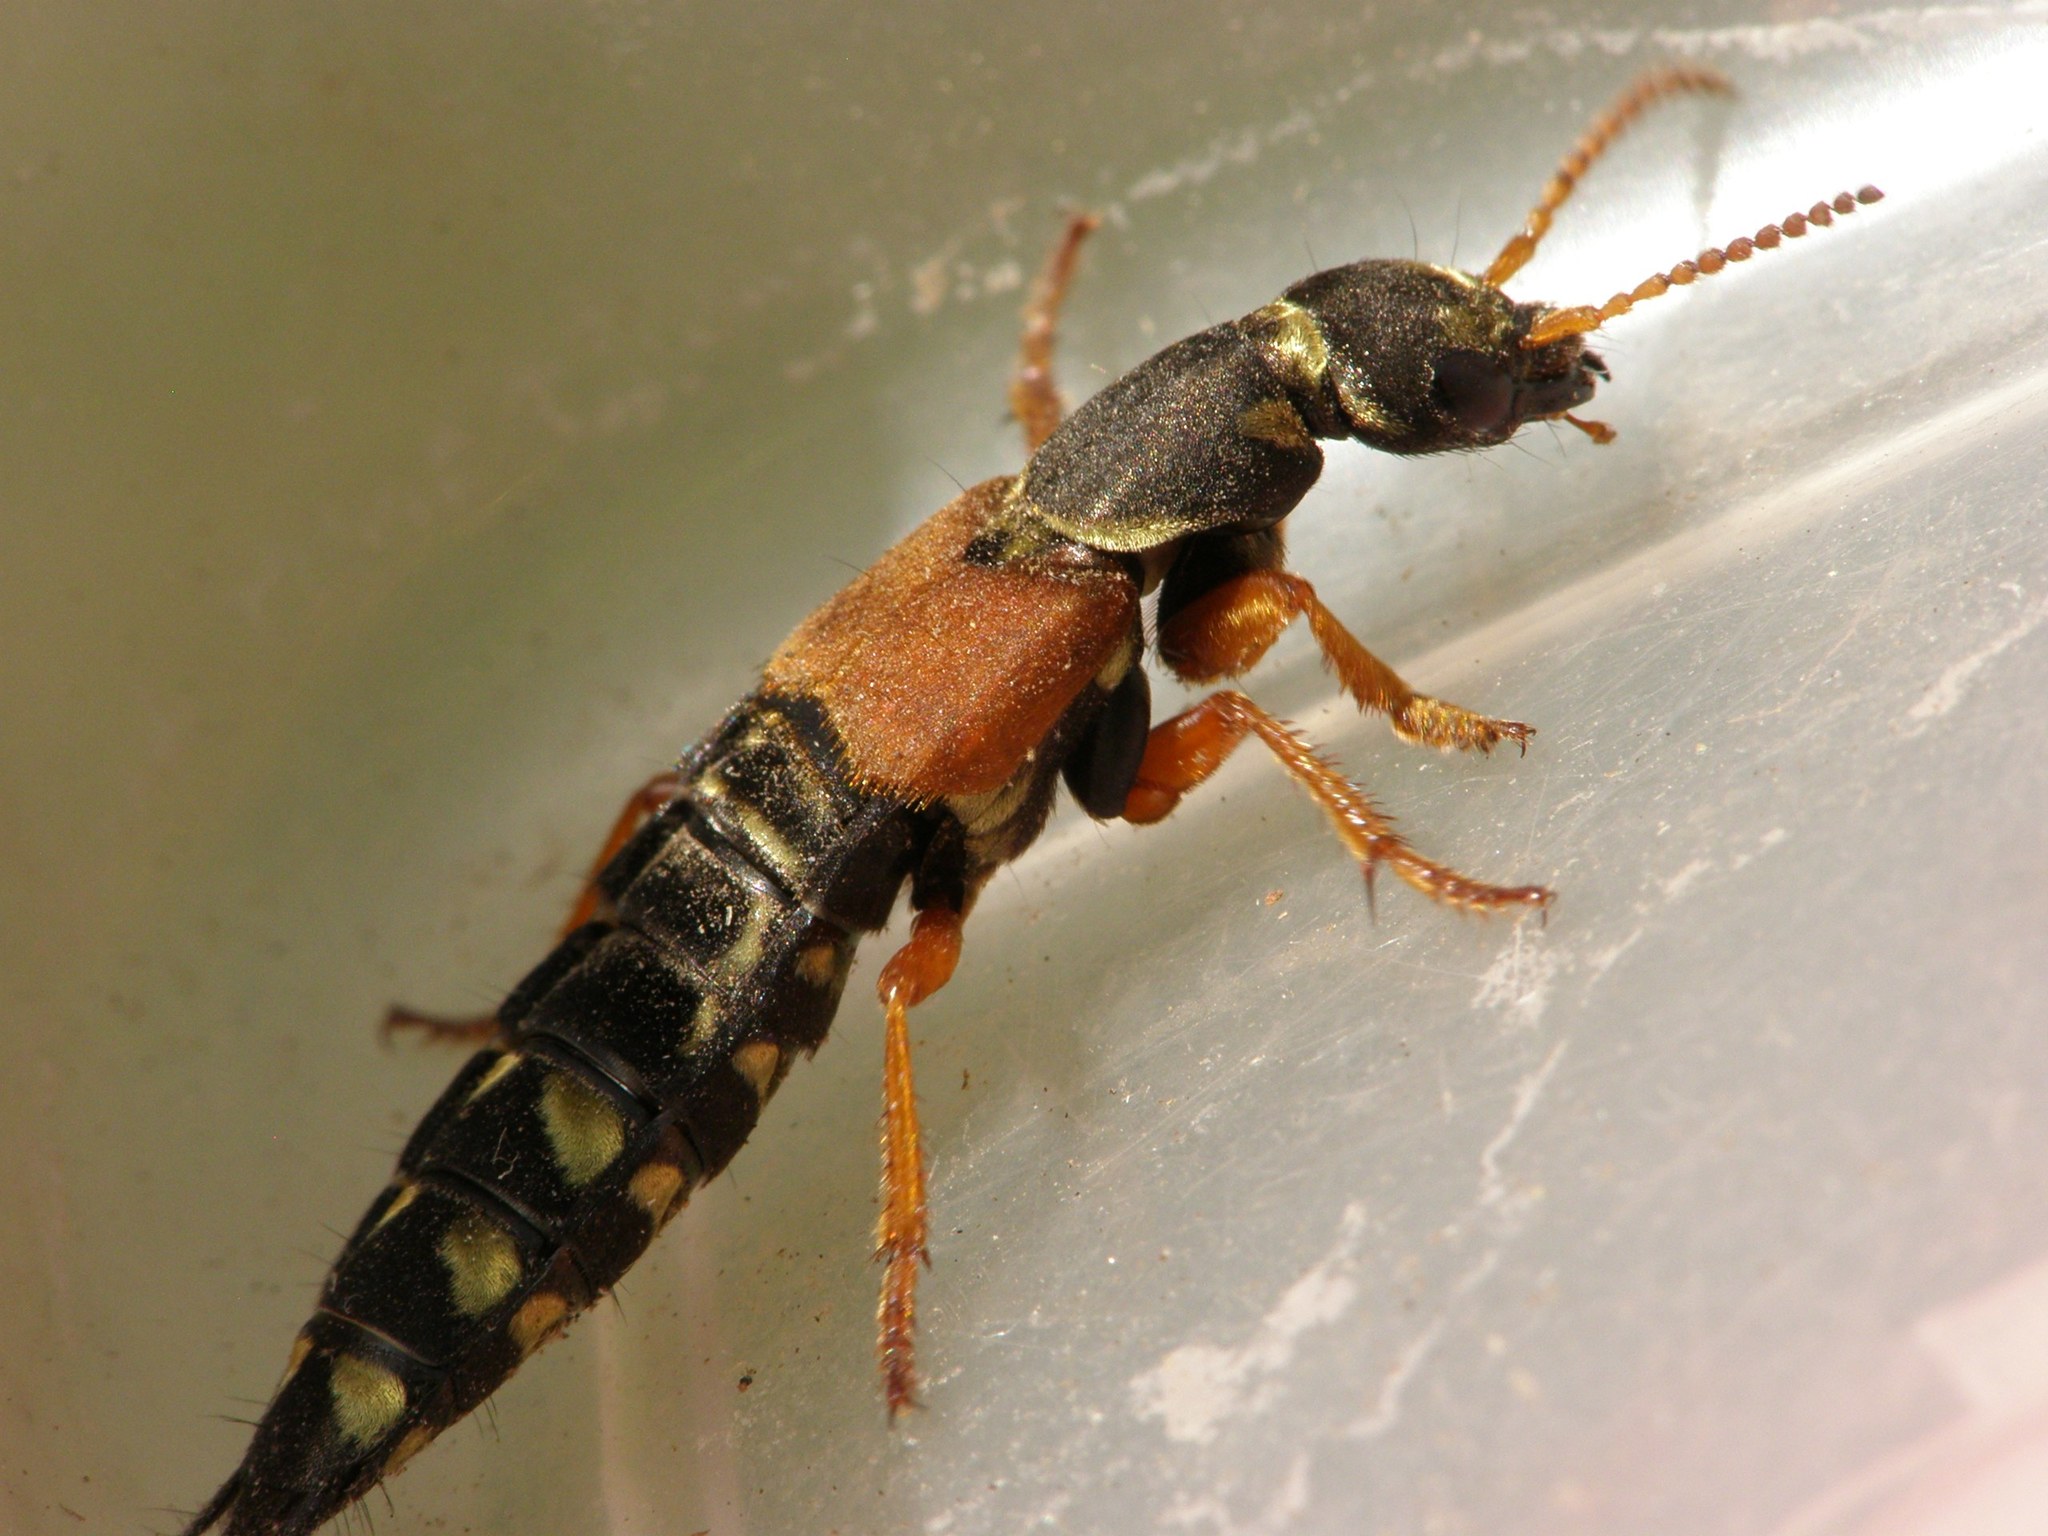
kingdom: Animalia
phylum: Arthropoda
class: Insecta
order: Coleoptera
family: Staphylinidae
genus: Staphylinus
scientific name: Staphylinus caesareus
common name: Staph beetle
